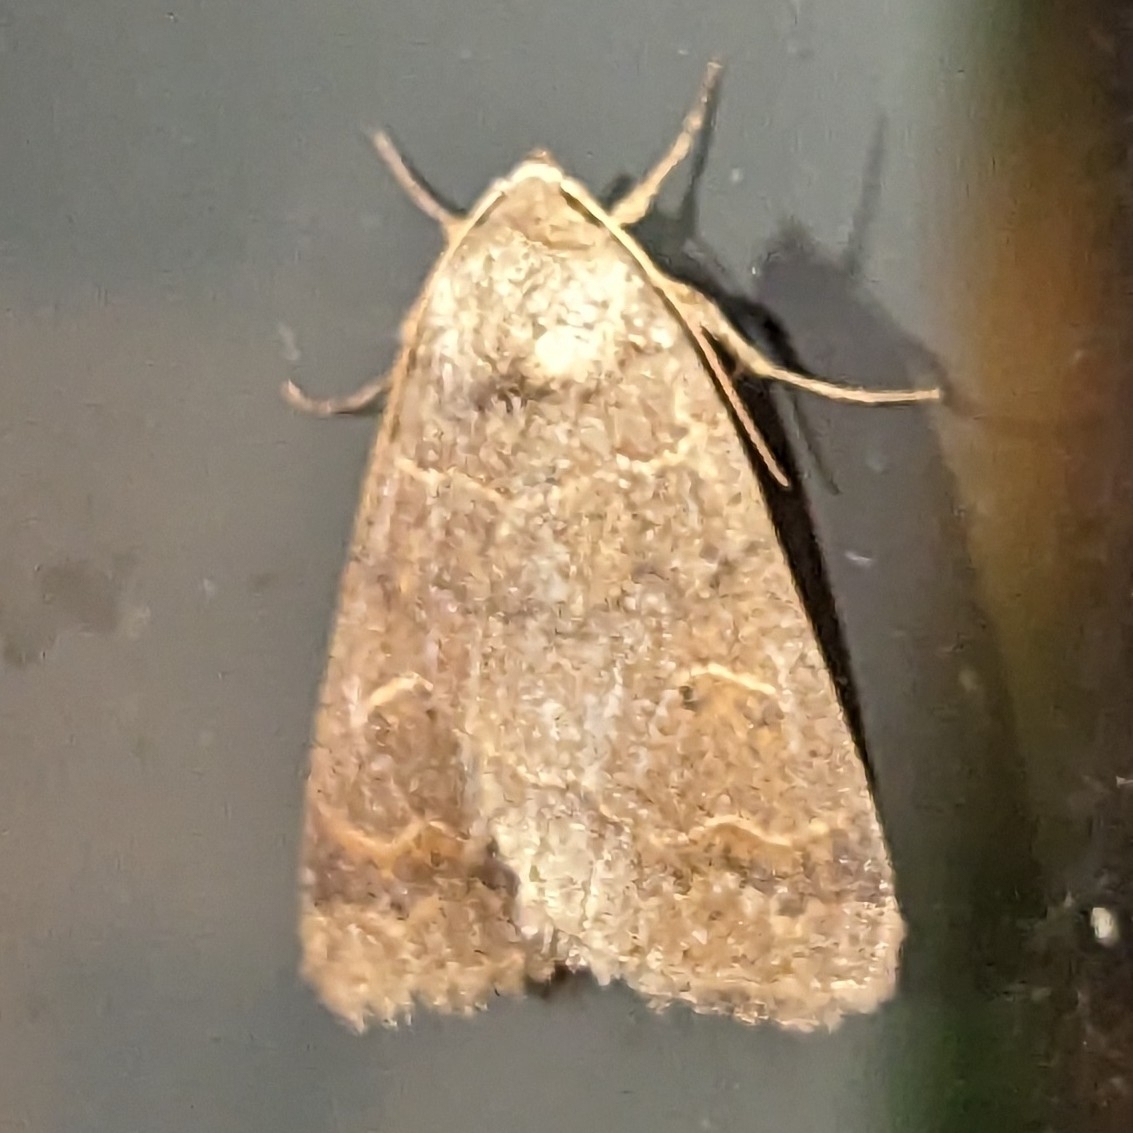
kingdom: Animalia
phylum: Arthropoda
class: Insecta
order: Lepidoptera
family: Erebidae
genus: Phoberia
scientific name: Phoberia atomaris
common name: Common oak moth
